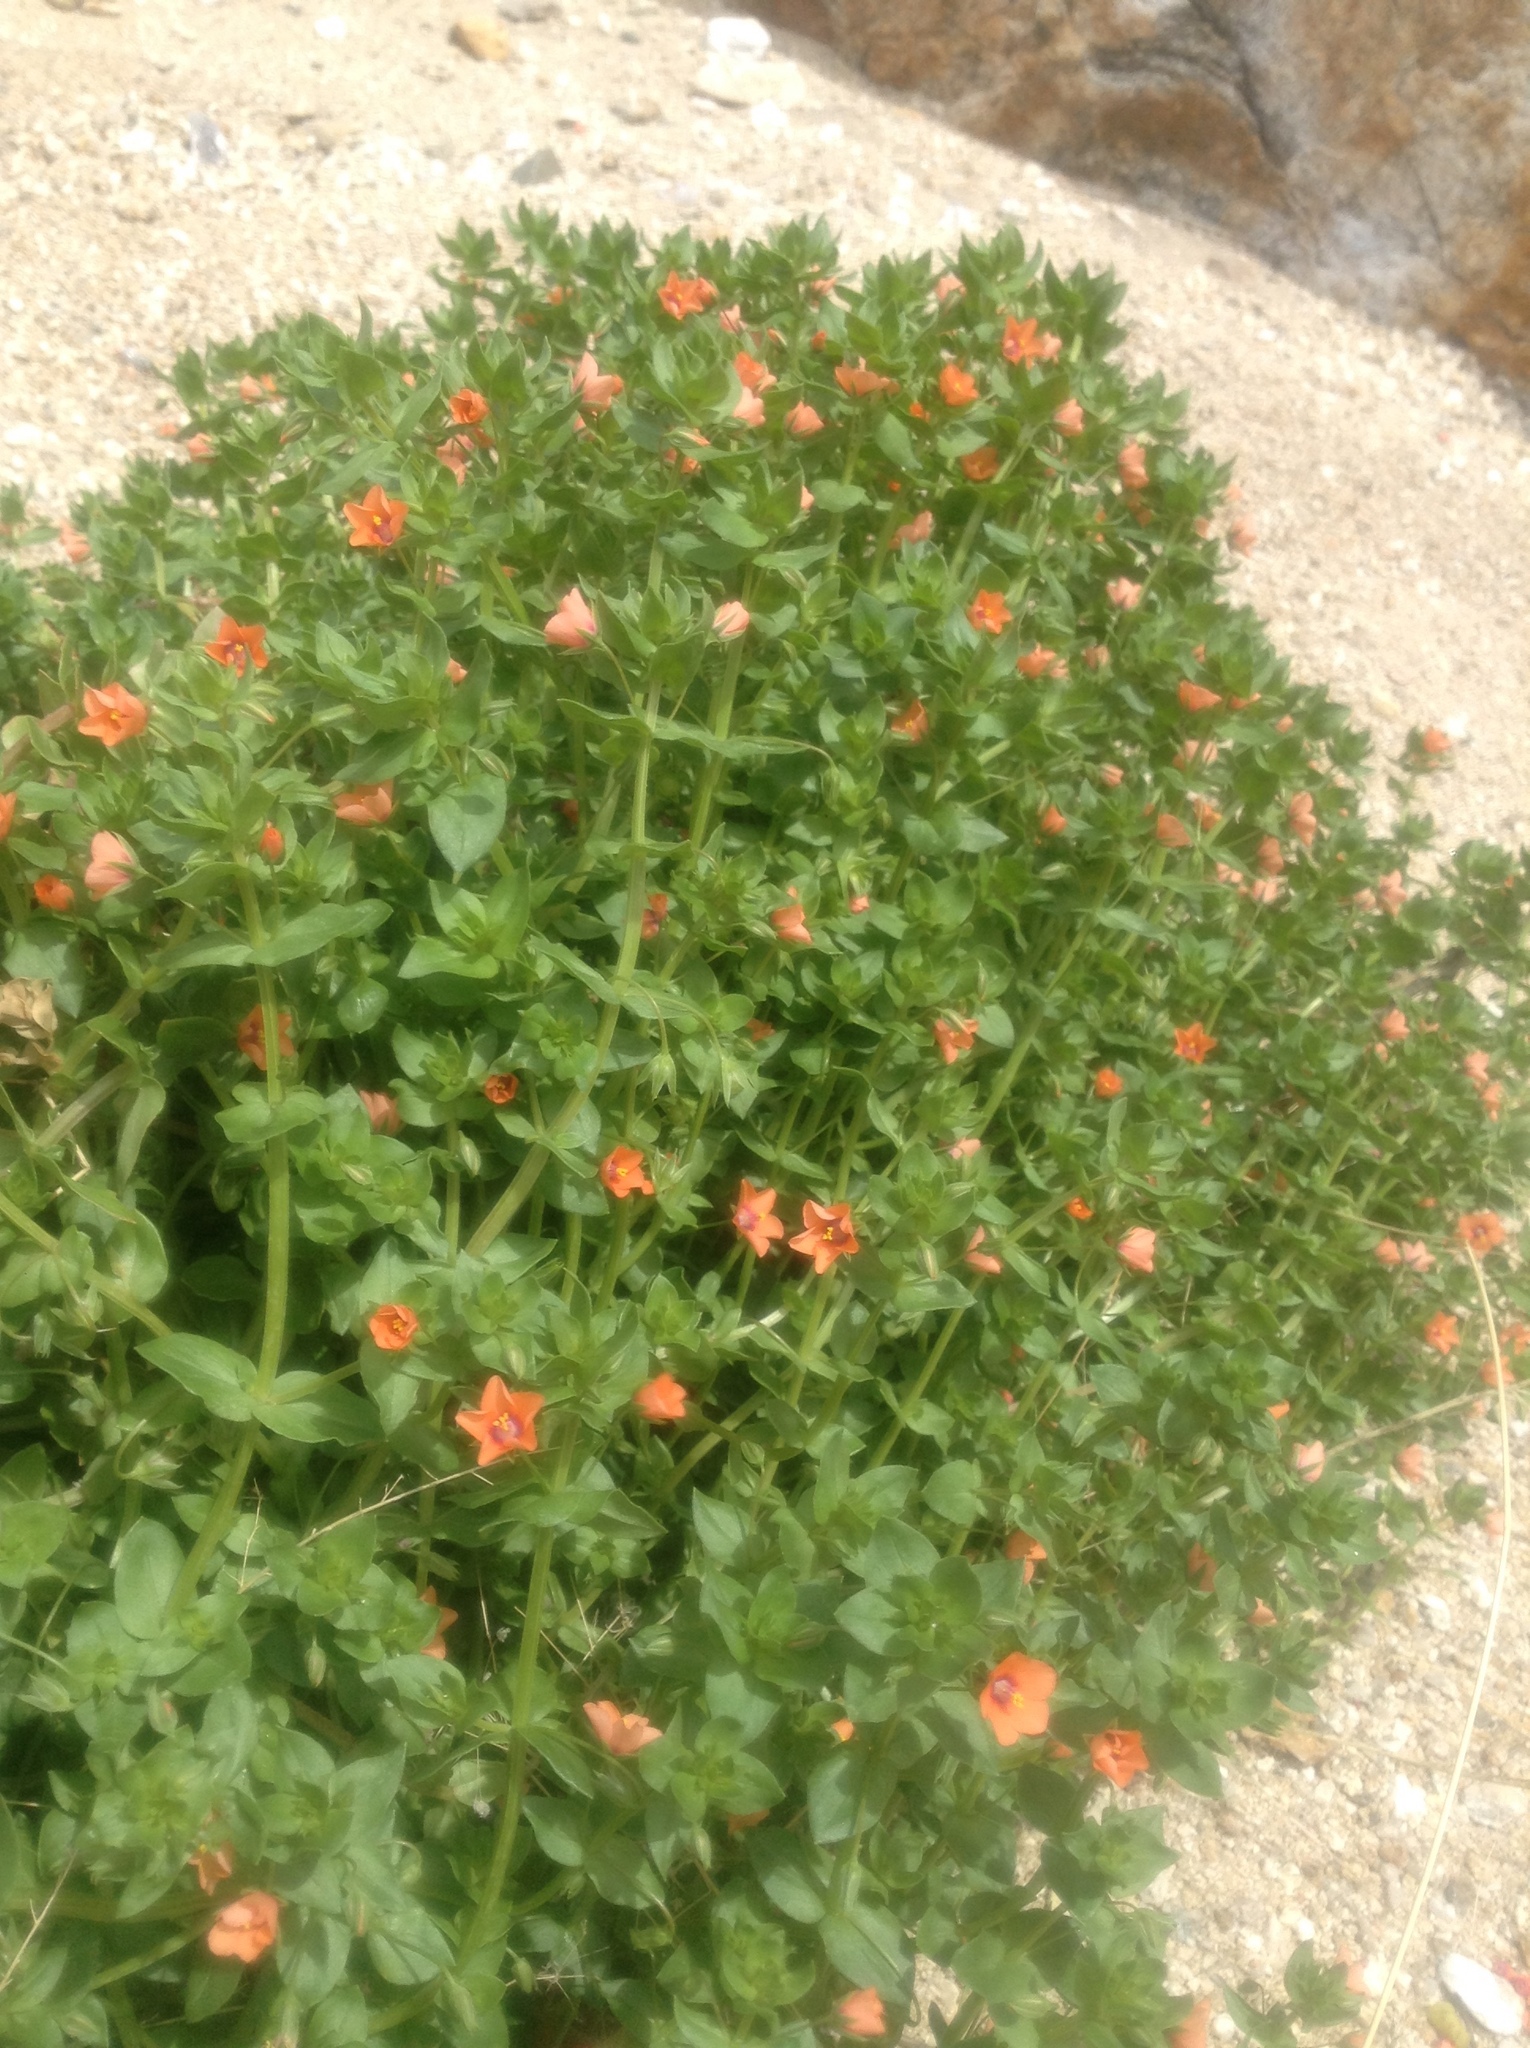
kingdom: Plantae
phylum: Tracheophyta
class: Magnoliopsida
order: Ericales
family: Primulaceae
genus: Lysimachia
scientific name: Lysimachia arvensis
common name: Scarlet pimpernel
